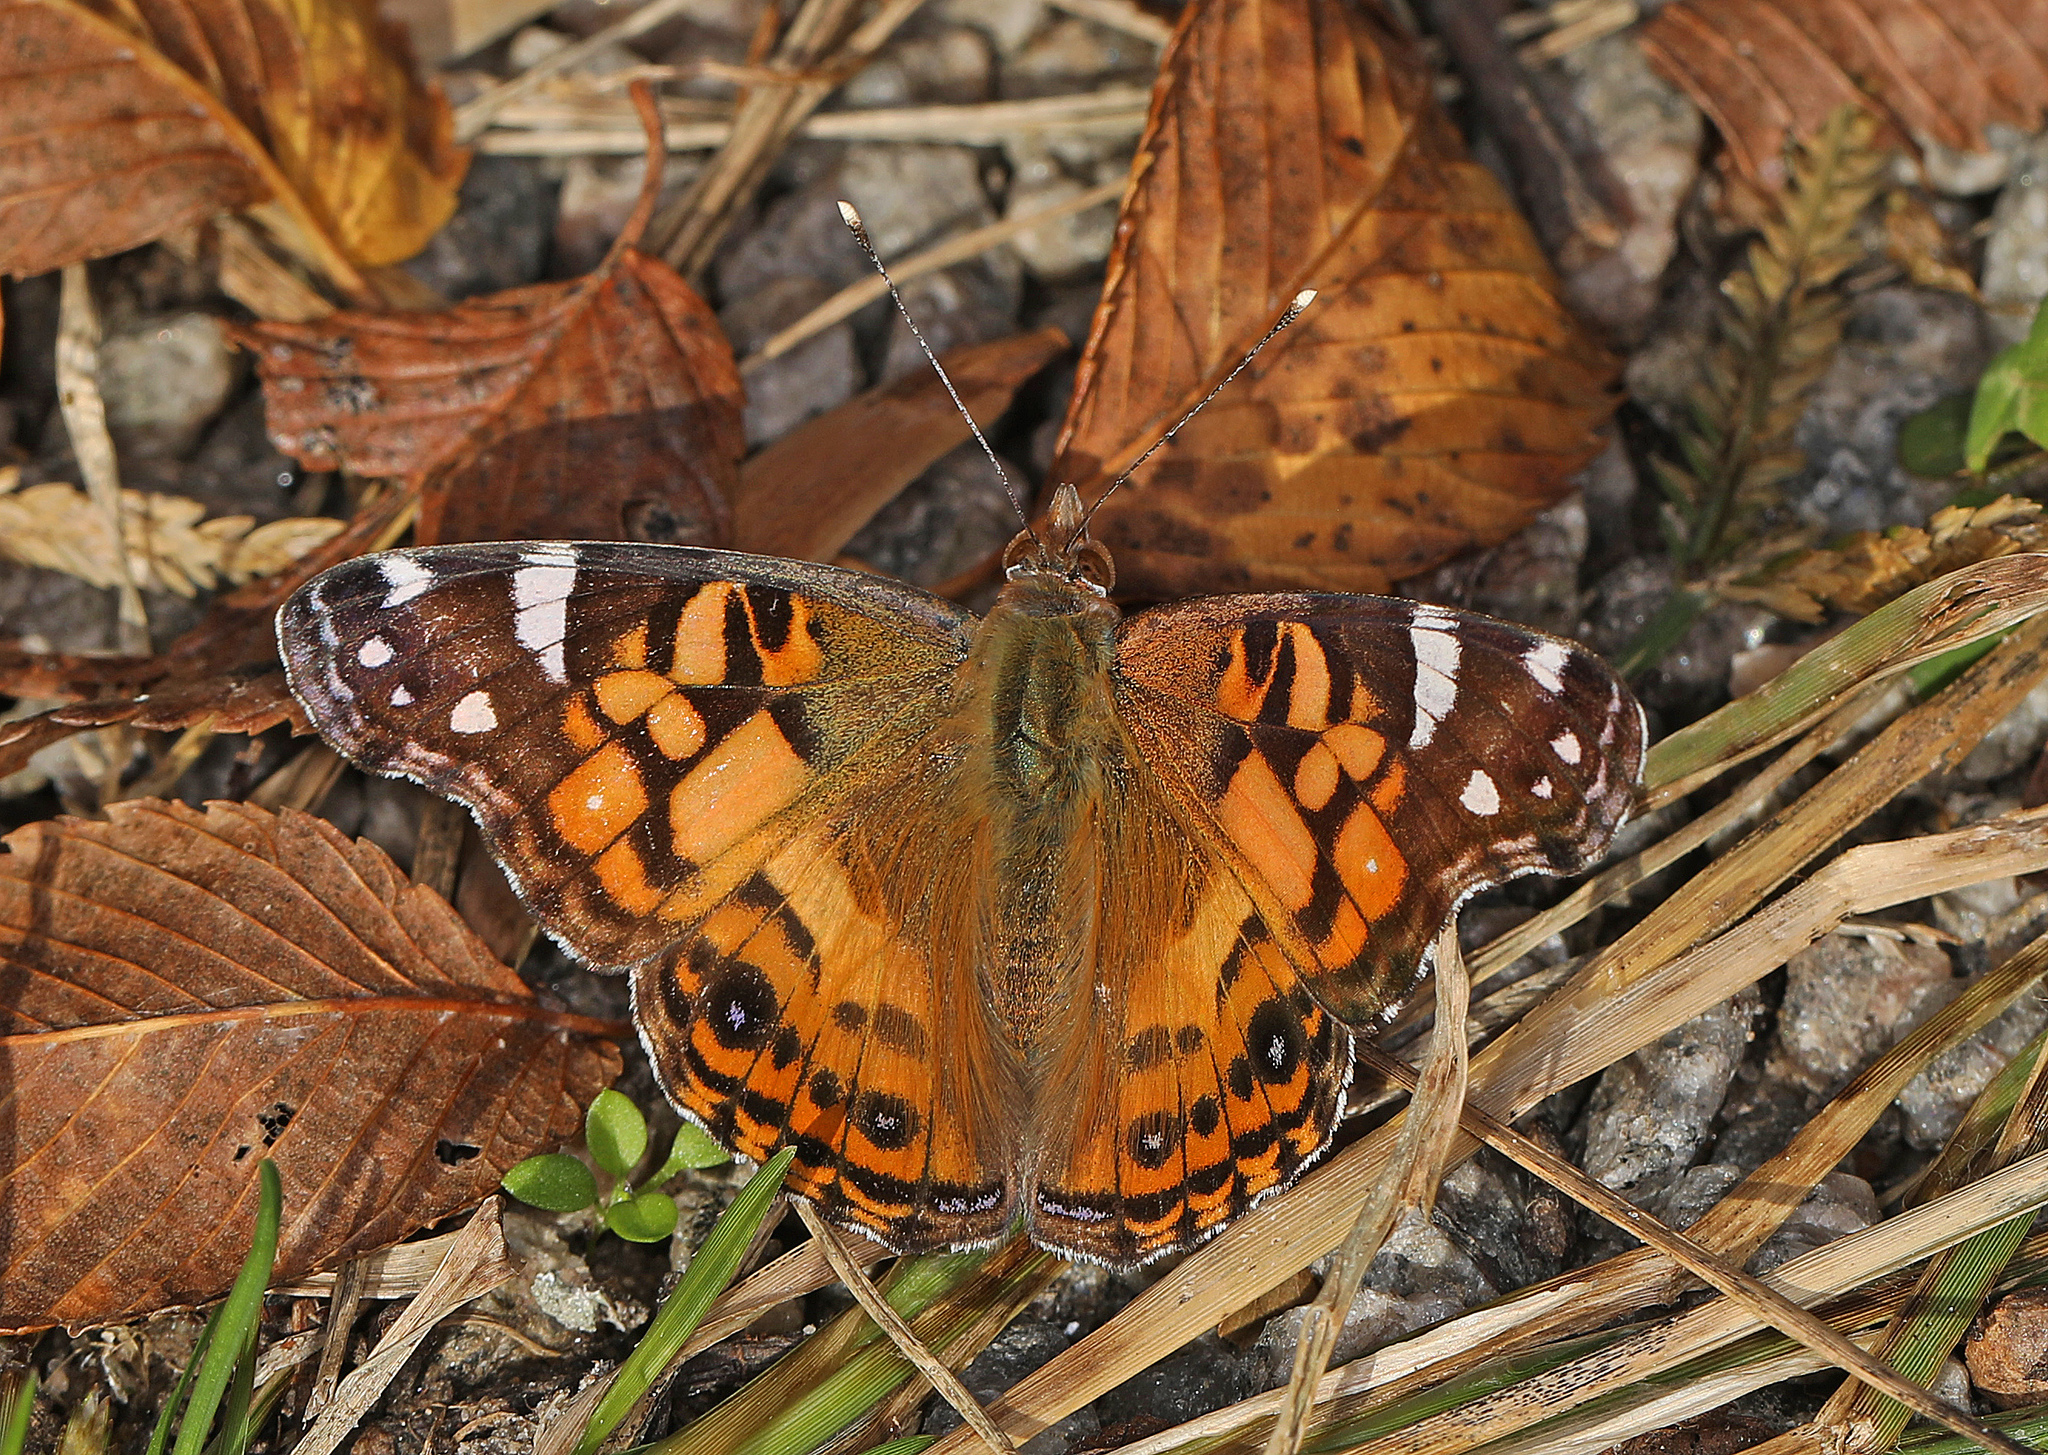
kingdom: Animalia
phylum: Arthropoda
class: Insecta
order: Lepidoptera
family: Nymphalidae
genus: Vanessa
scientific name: Vanessa virginiensis
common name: American lady
